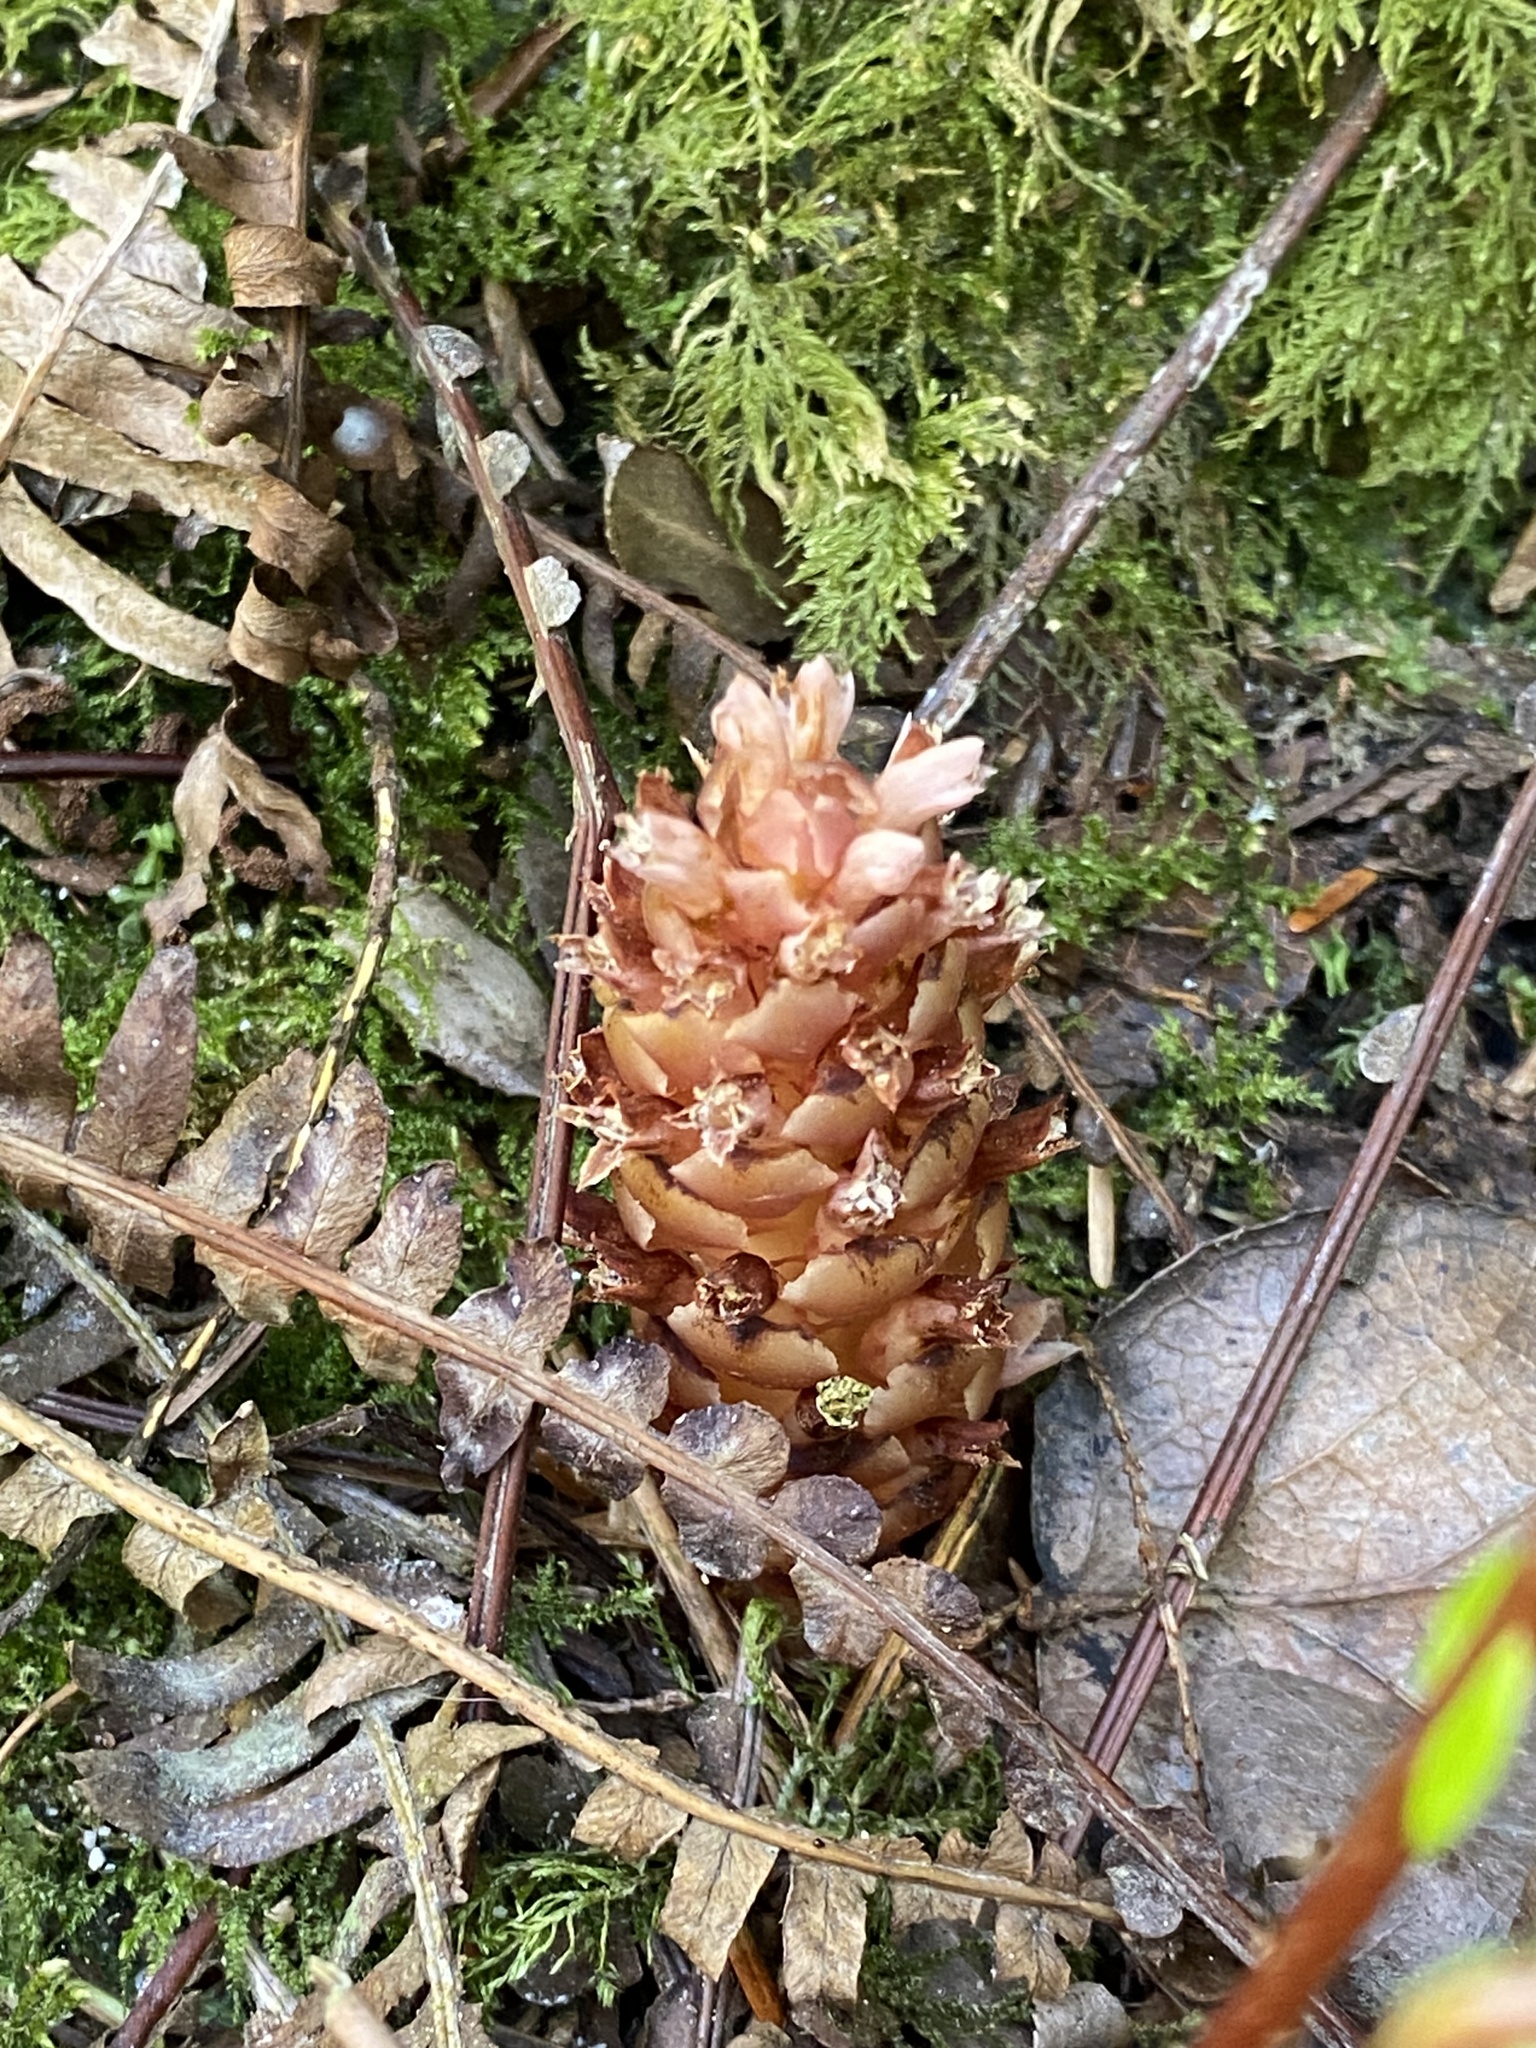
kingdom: Plantae
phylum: Tracheophyta
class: Magnoliopsida
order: Lamiales
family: Orobanchaceae
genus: Kopsiopsis
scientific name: Kopsiopsis hookeri
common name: Hooker's groundcone
